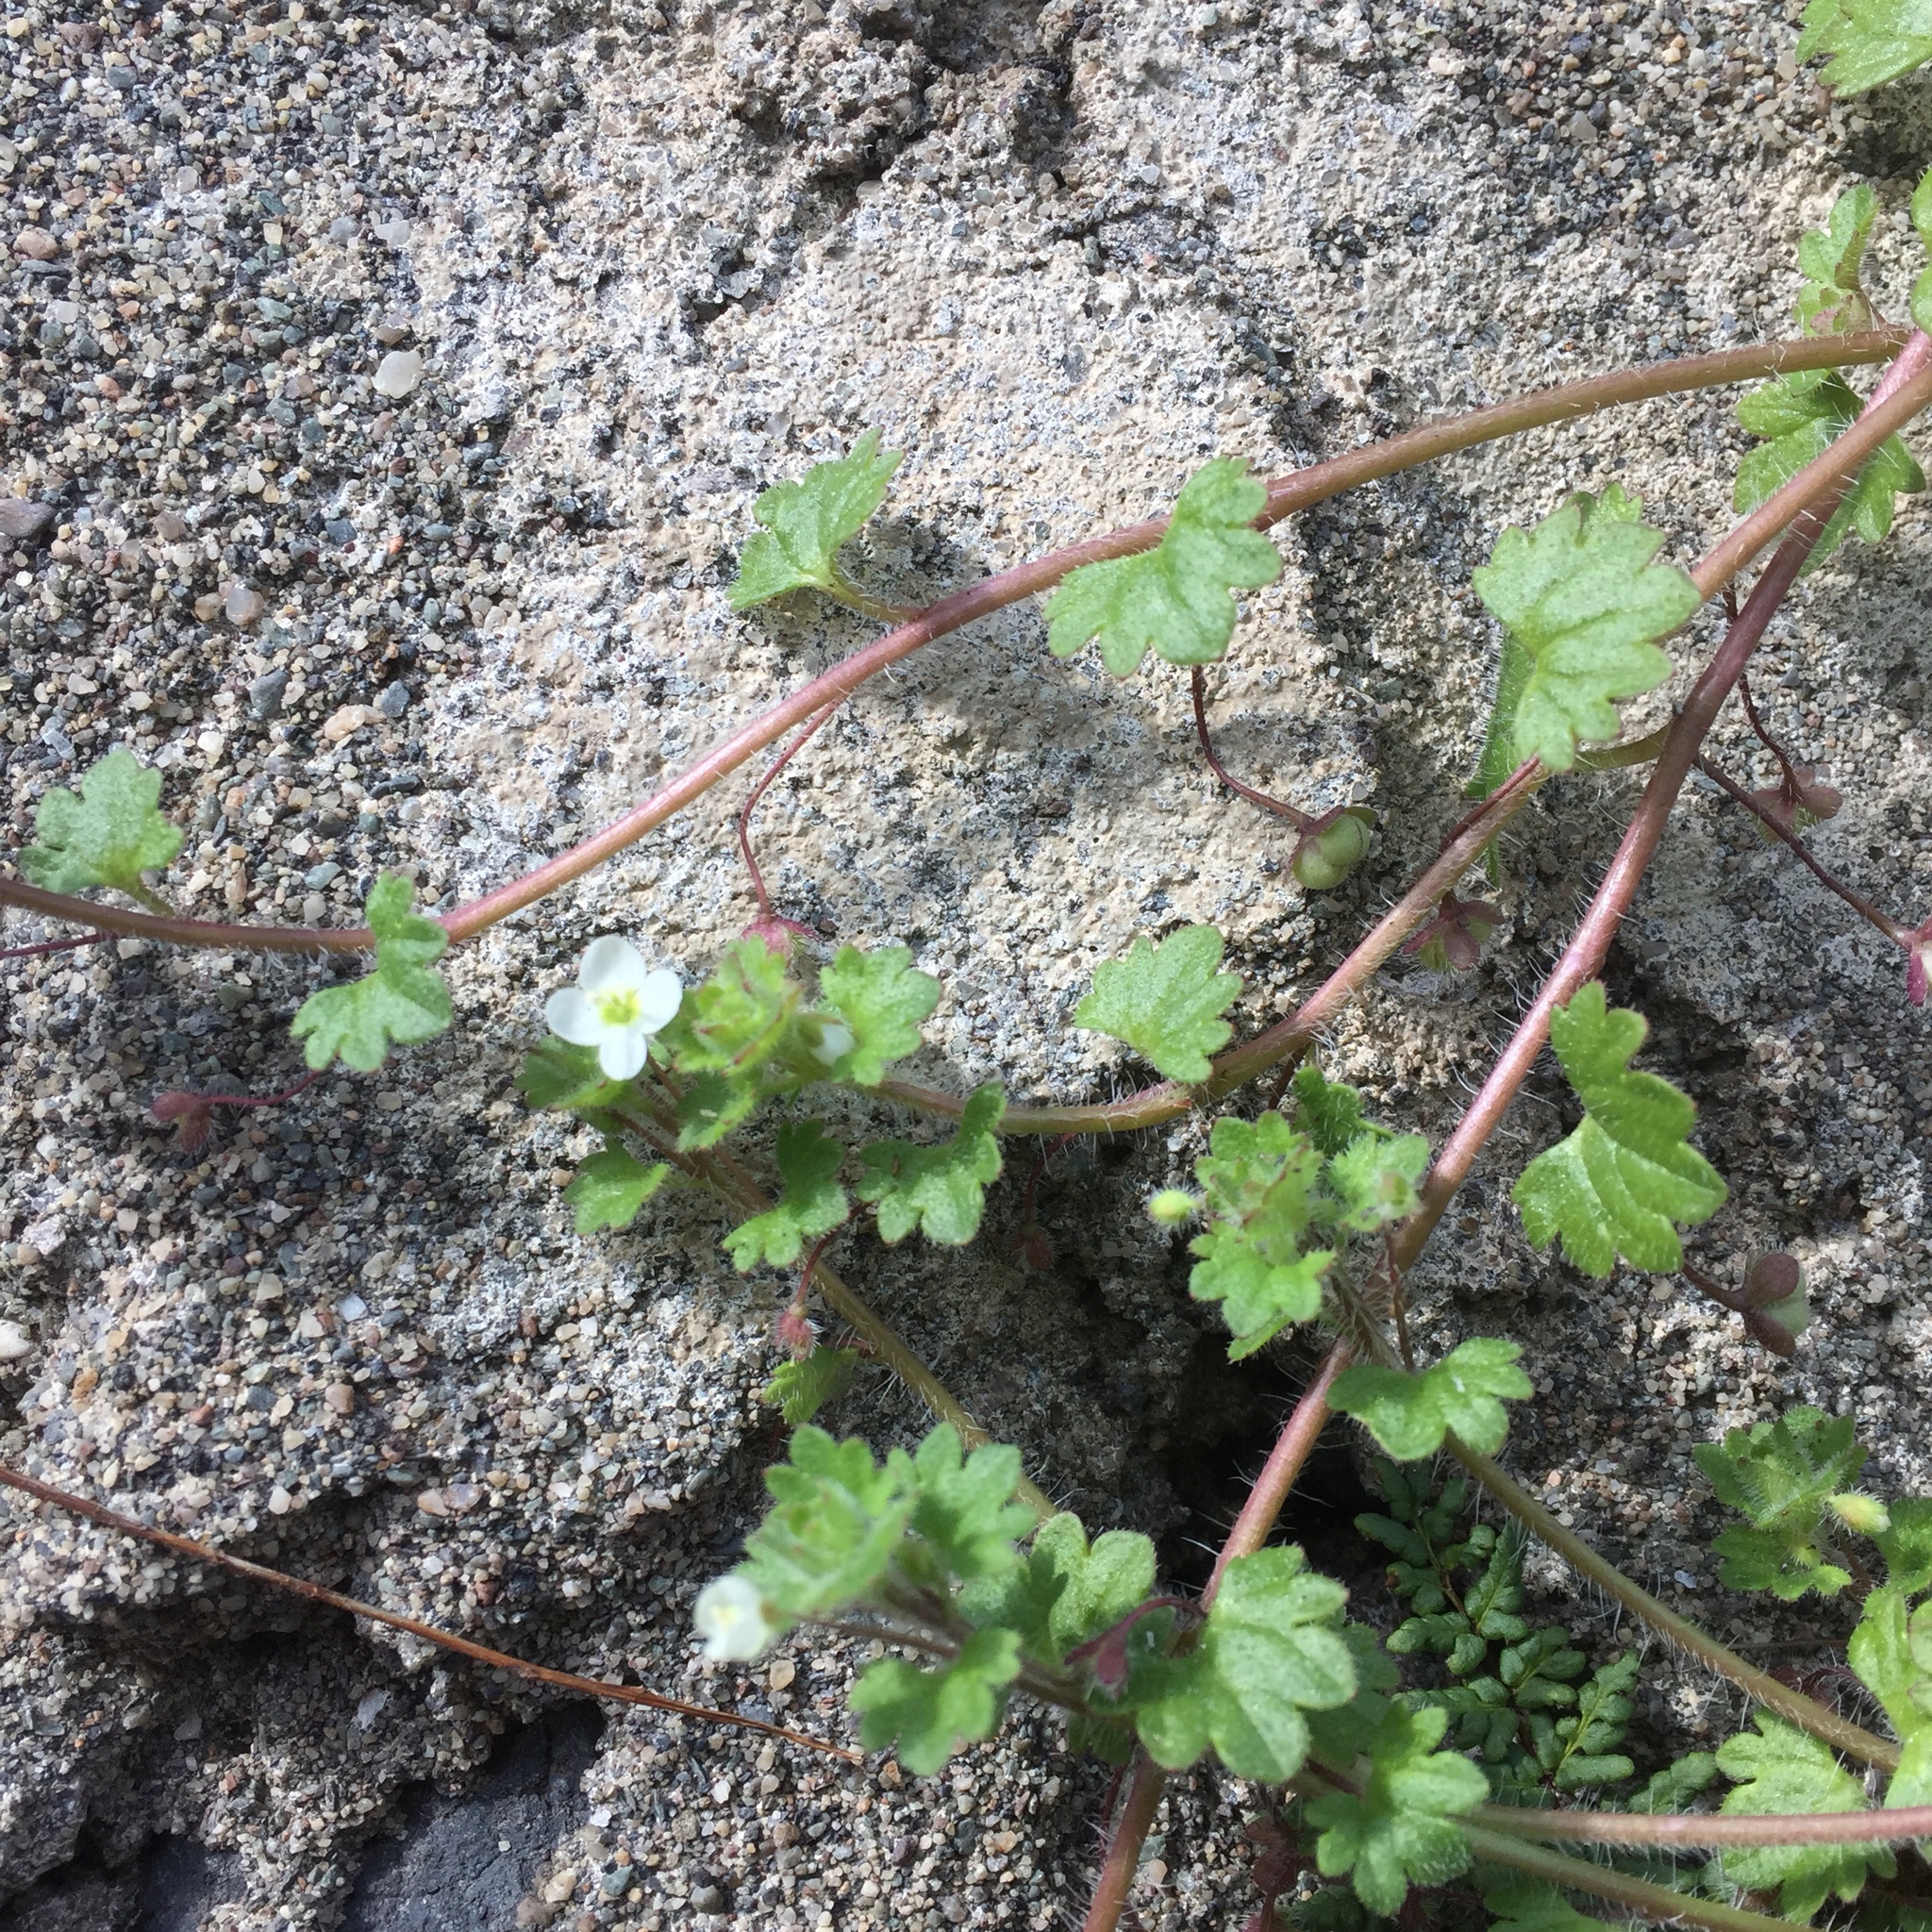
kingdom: Plantae
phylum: Tracheophyta
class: Magnoliopsida
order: Lamiales
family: Plantaginaceae
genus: Veronica
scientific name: Veronica cymbalaria
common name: Pale speedwell
